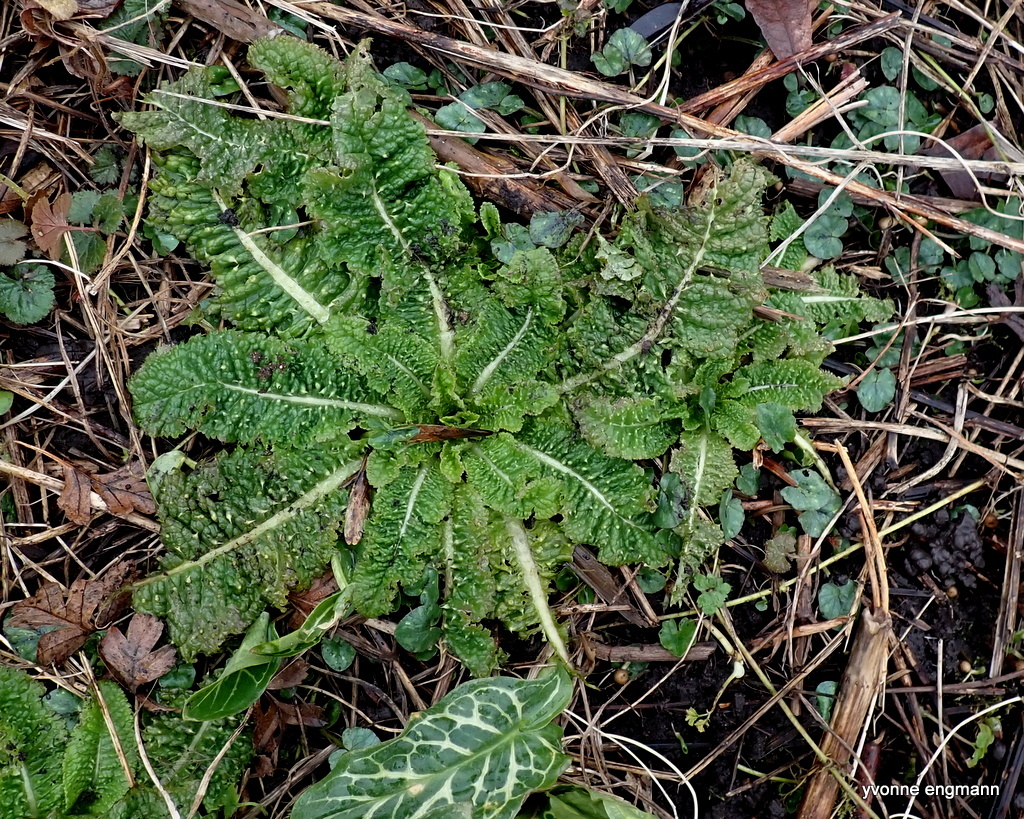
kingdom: Plantae
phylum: Tracheophyta
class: Magnoliopsida
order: Dipsacales
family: Caprifoliaceae
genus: Dipsacus
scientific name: Dipsacus fullonum
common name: Teasel
